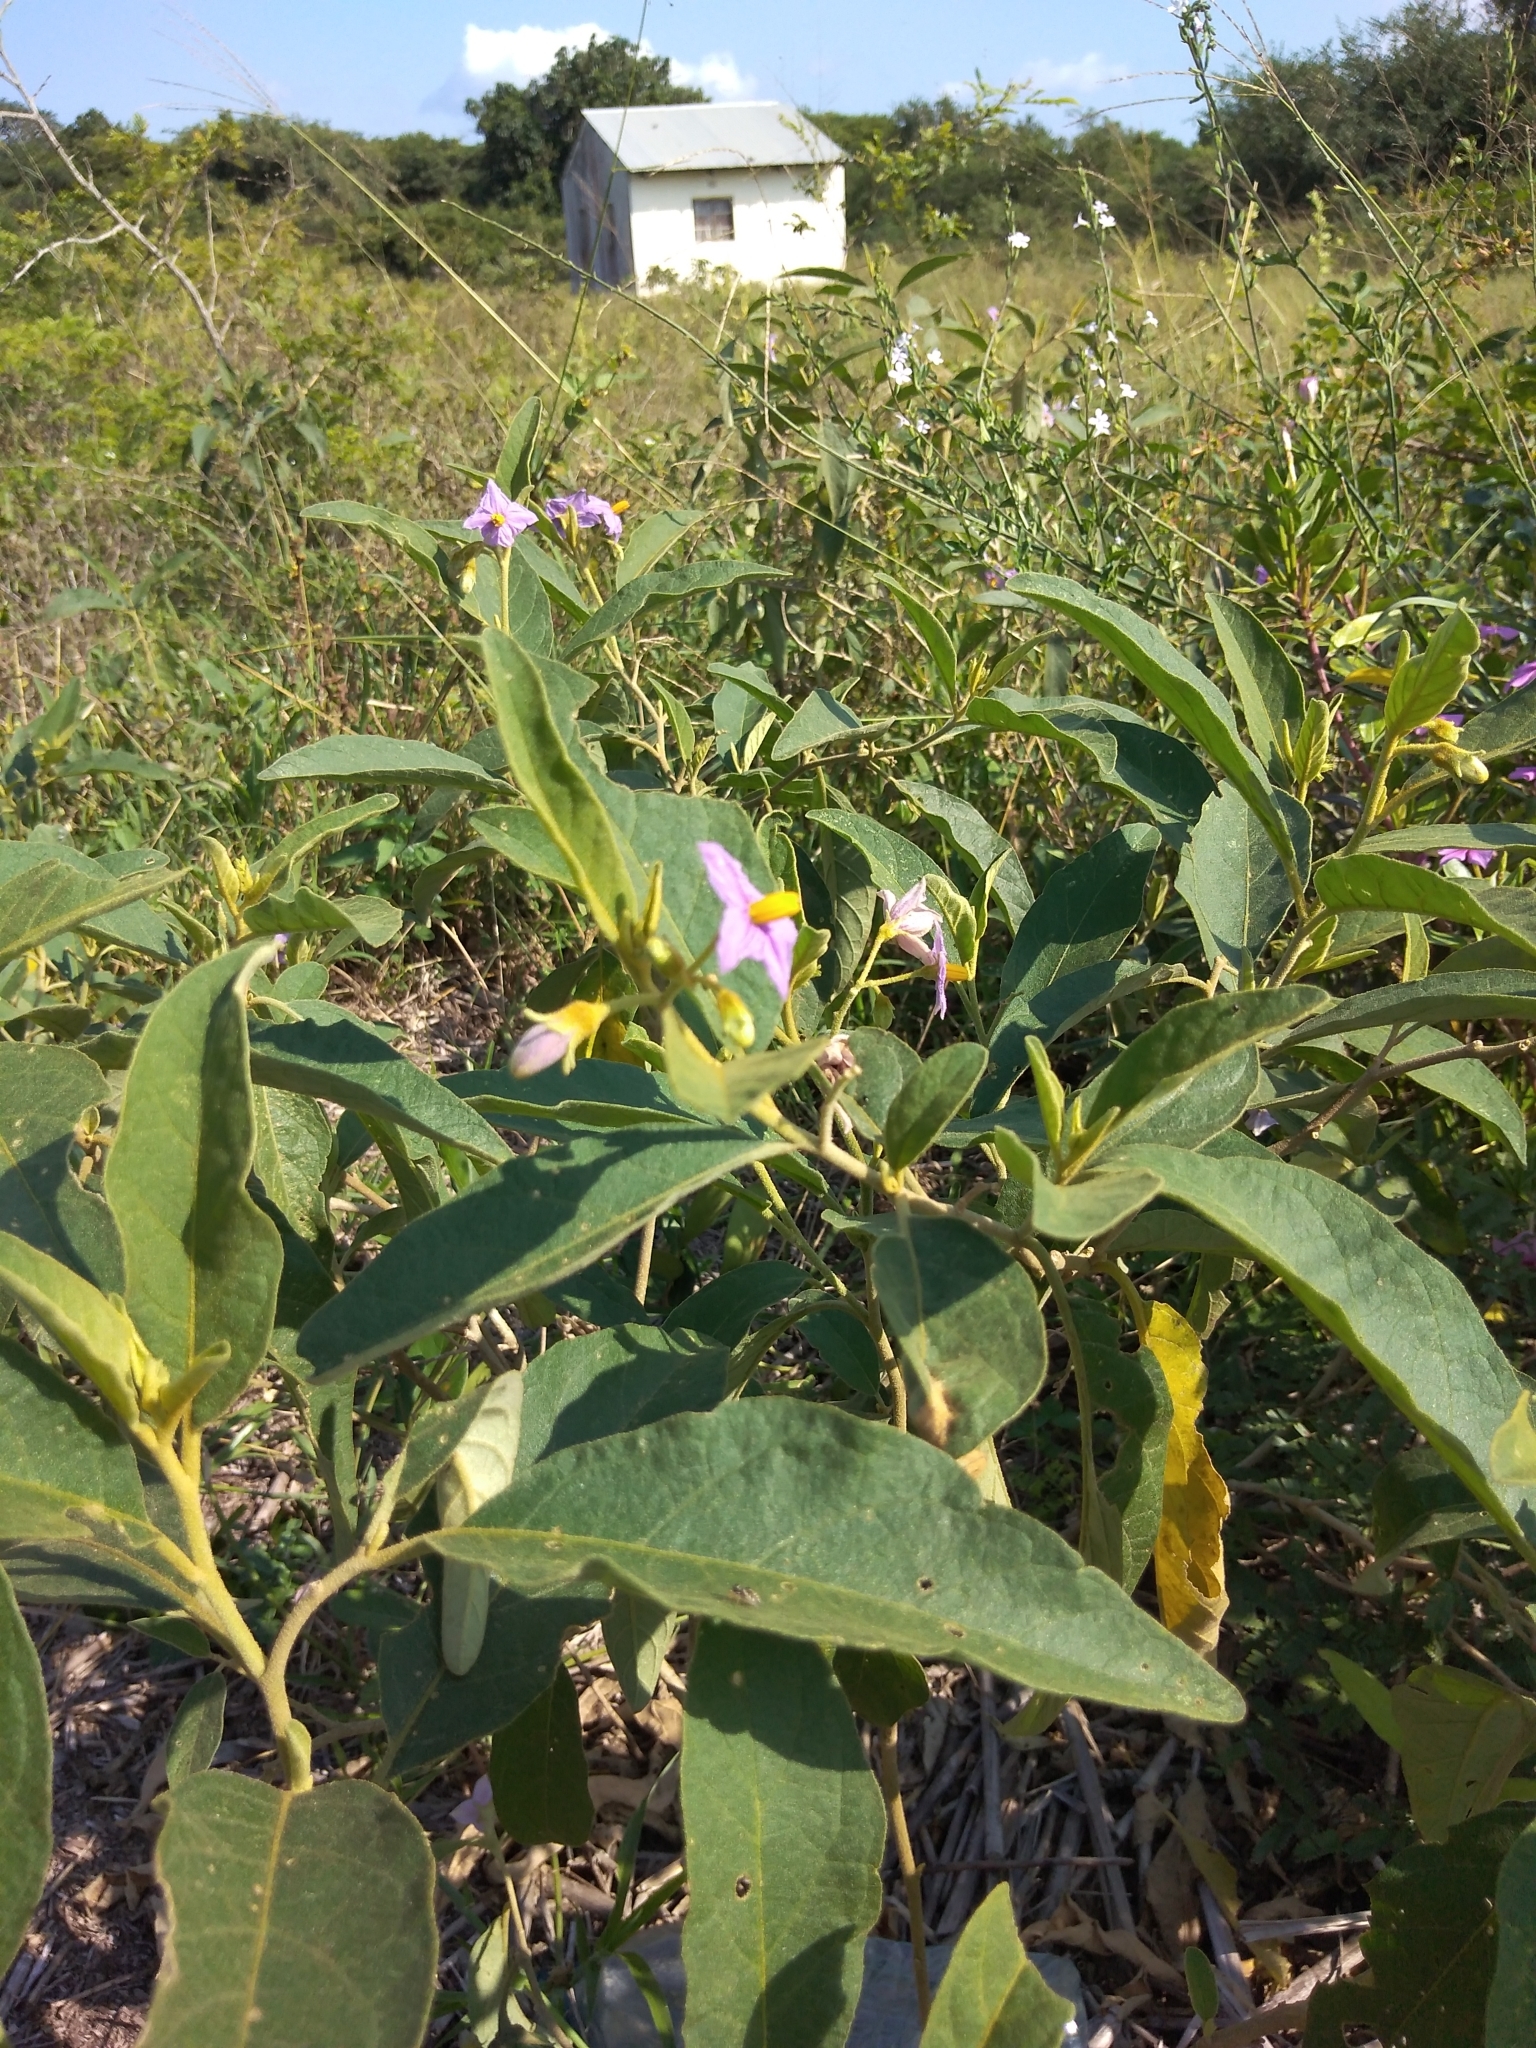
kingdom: Plantae
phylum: Tracheophyta
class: Magnoliopsida
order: Solanales
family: Solanaceae
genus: Solanum
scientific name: Solanum campylacanthum
